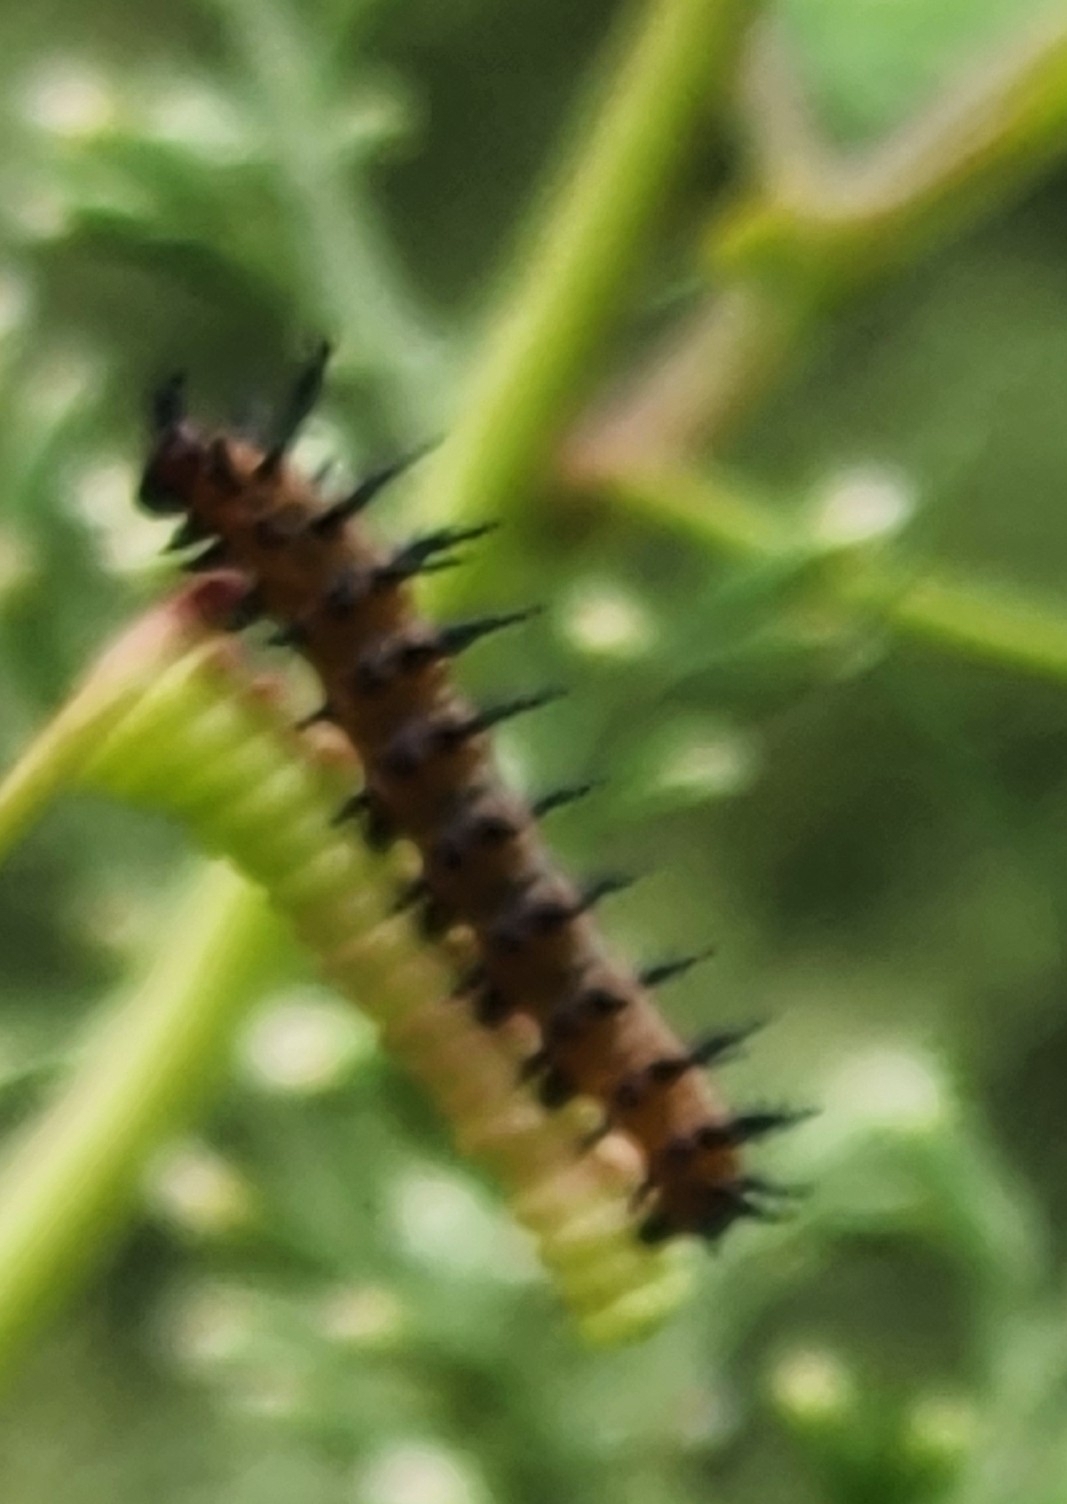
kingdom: Animalia
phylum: Arthropoda
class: Insecta
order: Lepidoptera
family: Nymphalidae
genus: Dione
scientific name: Dione vanillae
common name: Gulf fritillary
